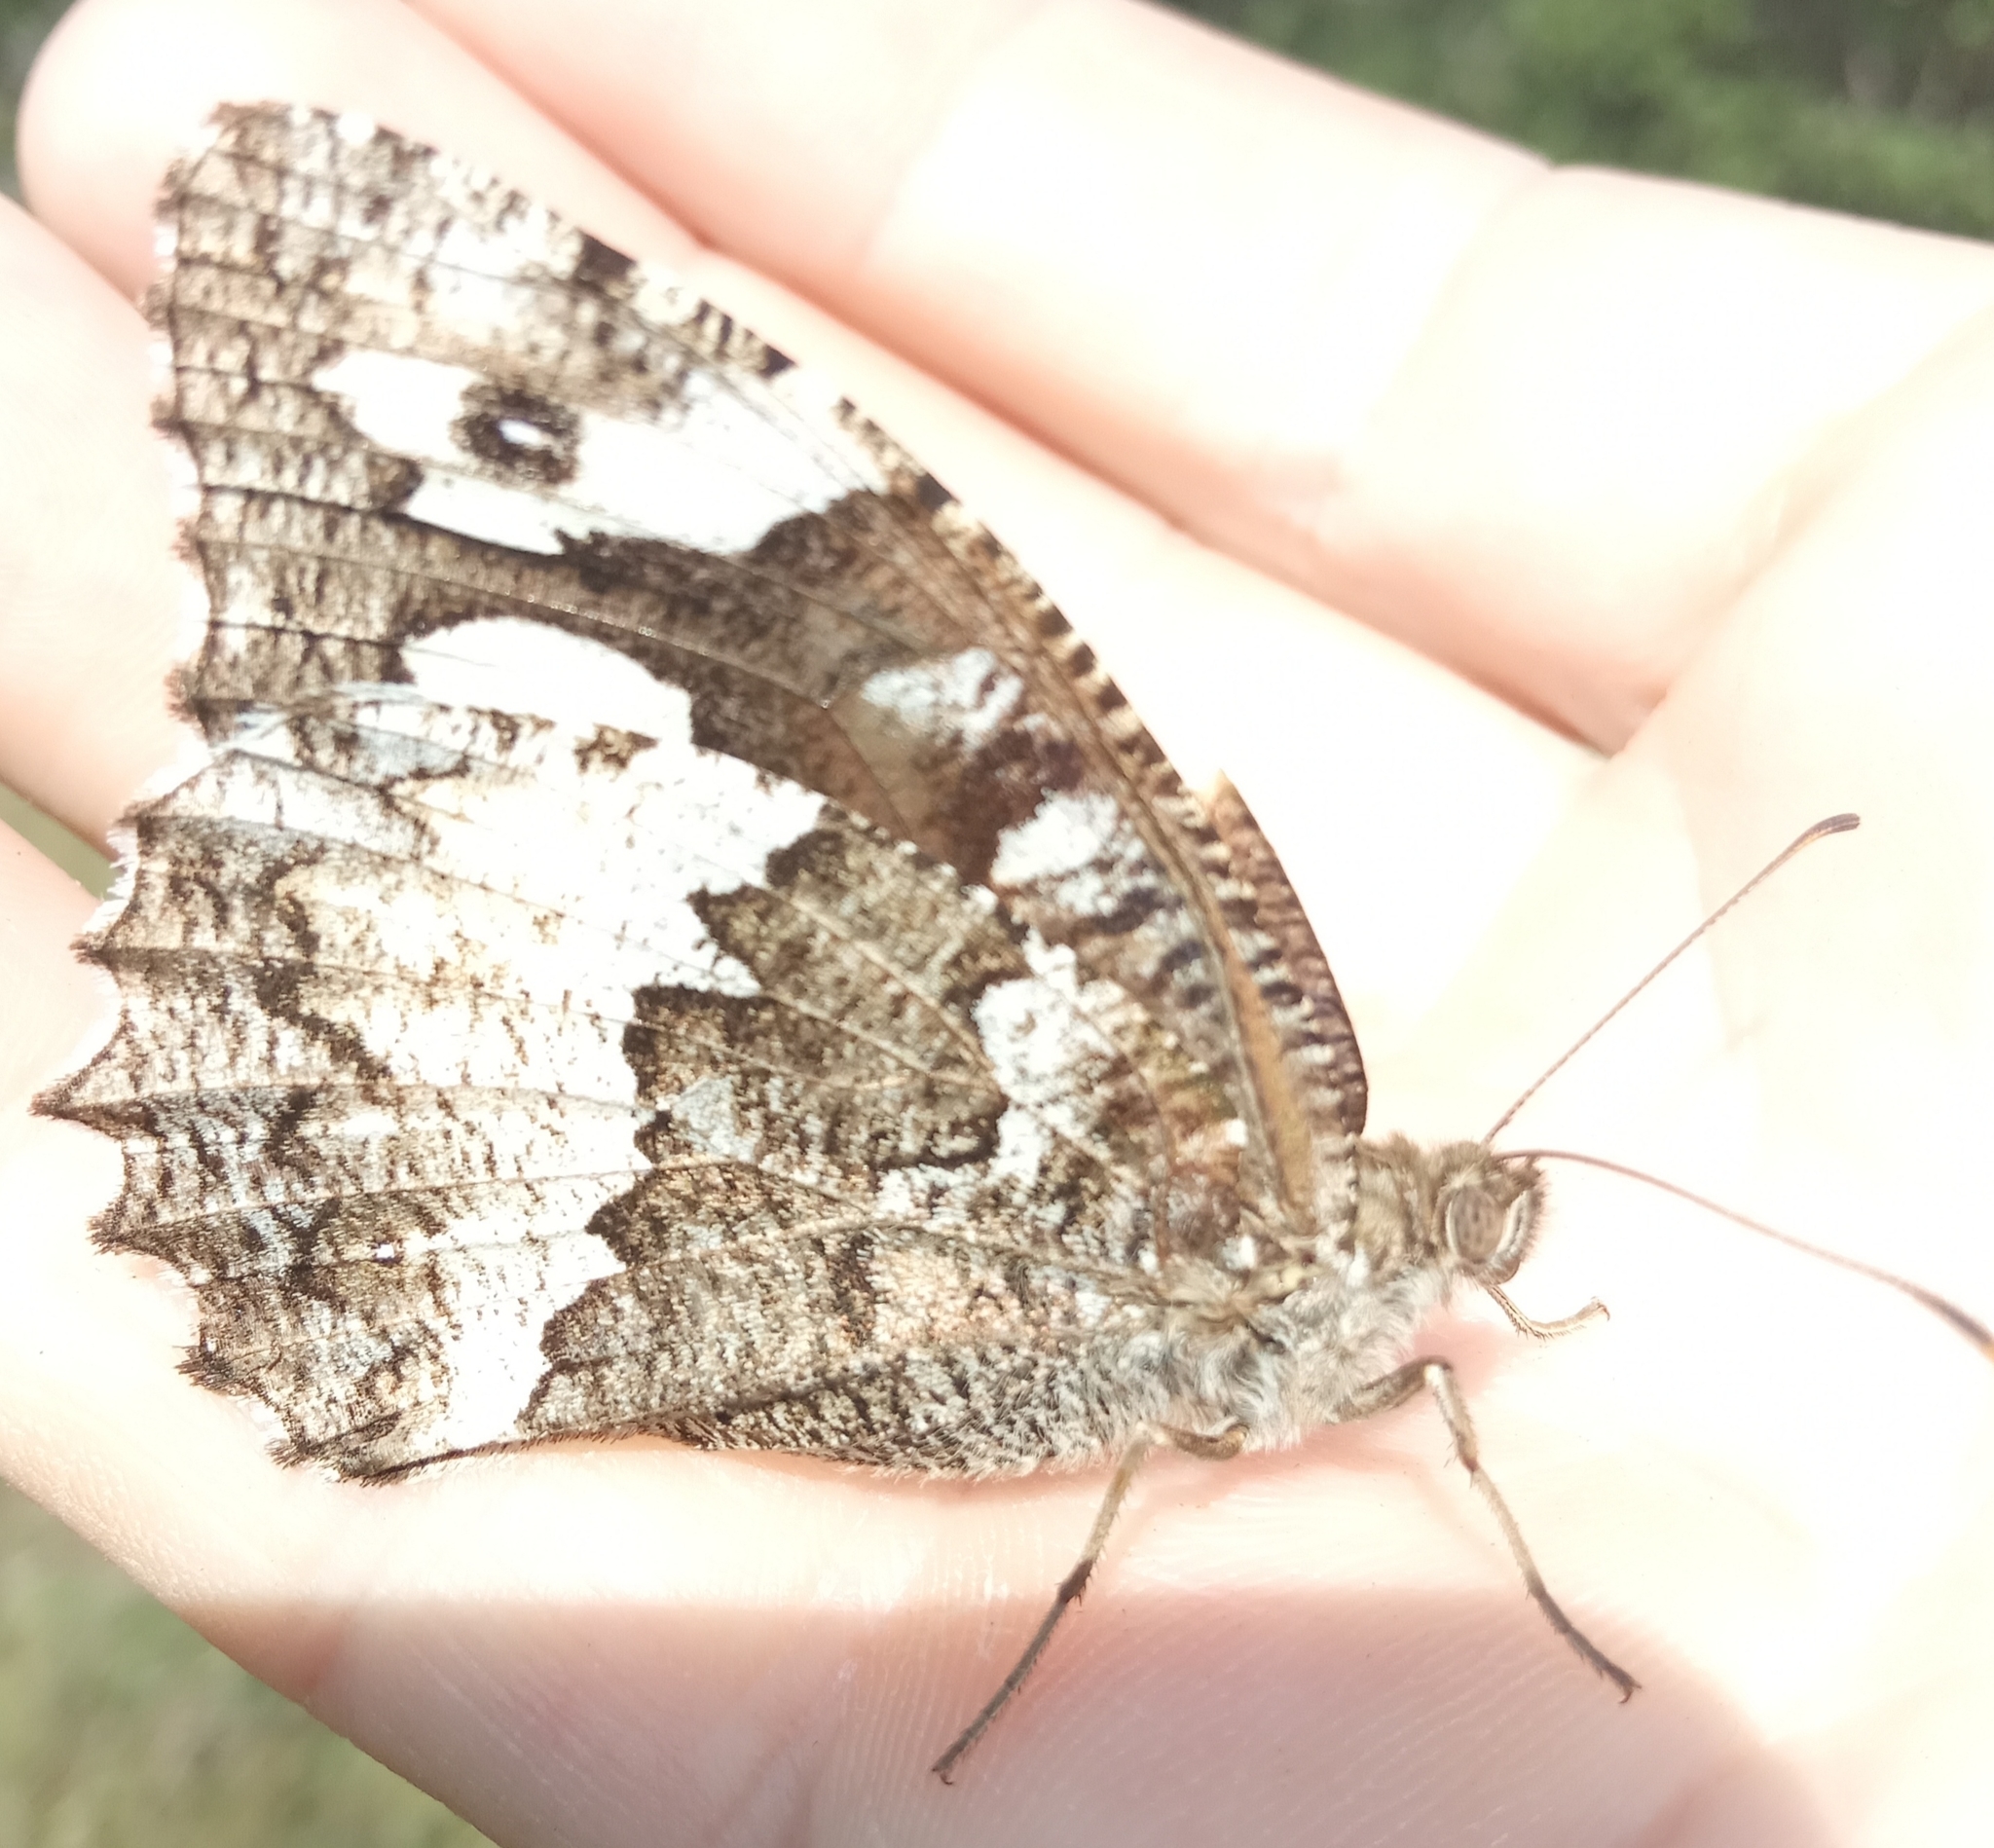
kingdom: Animalia
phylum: Arthropoda
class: Insecta
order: Lepidoptera
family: Lycaenidae
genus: Loweia
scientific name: Loweia tityrus
